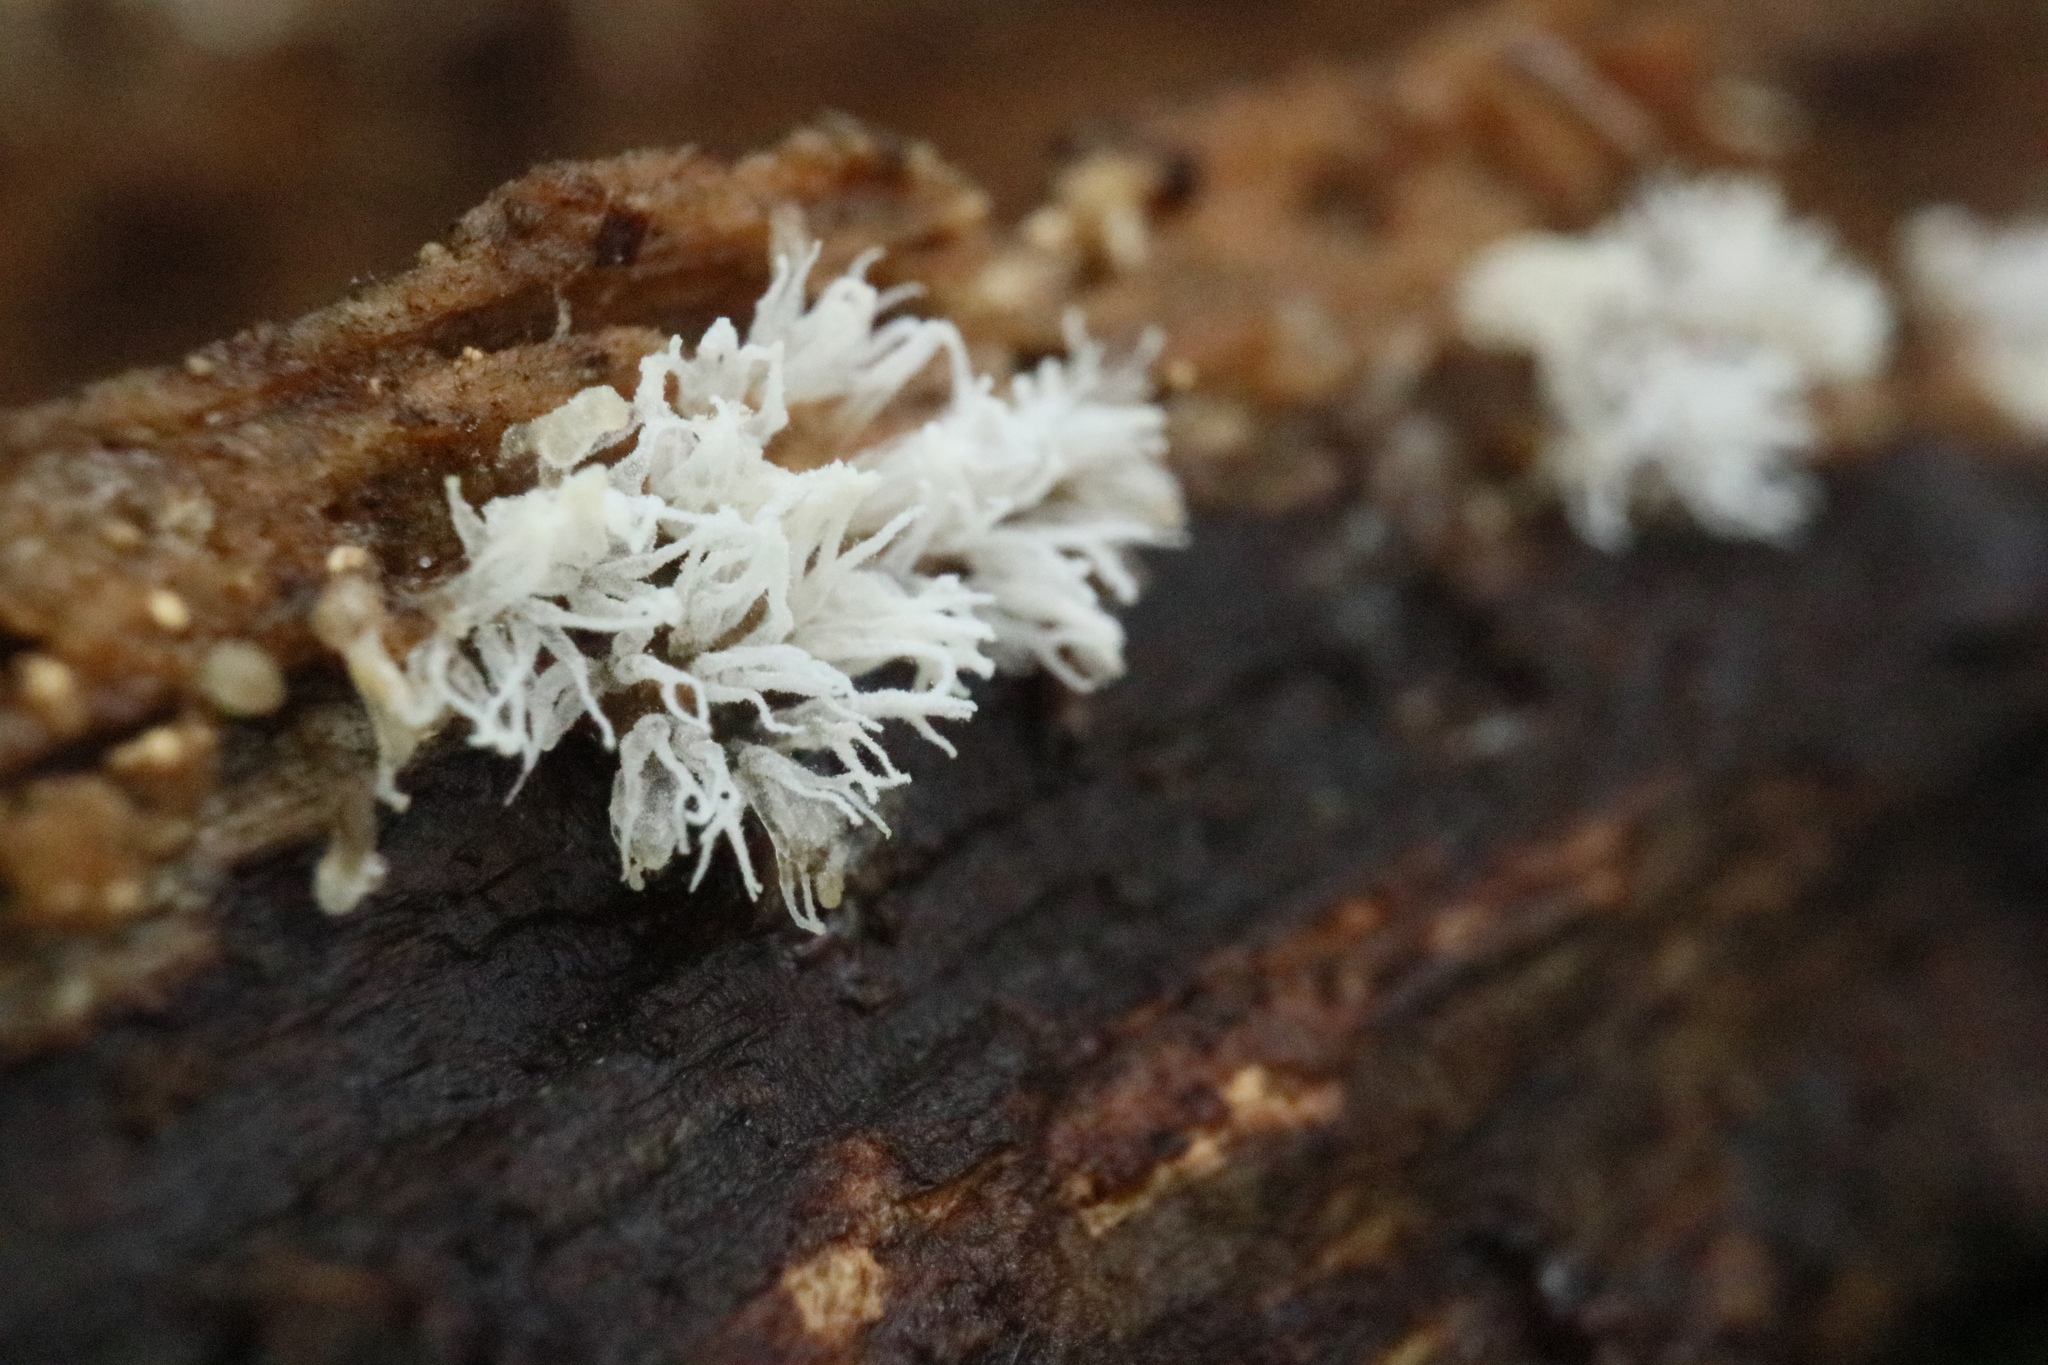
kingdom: Protozoa
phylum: Mycetozoa
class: Protosteliomycetes
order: Ceratiomyxales
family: Ceratiomyxaceae
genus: Ceratiomyxa
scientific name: Ceratiomyxa fruticulosa
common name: Honeycomb coral slime mold
